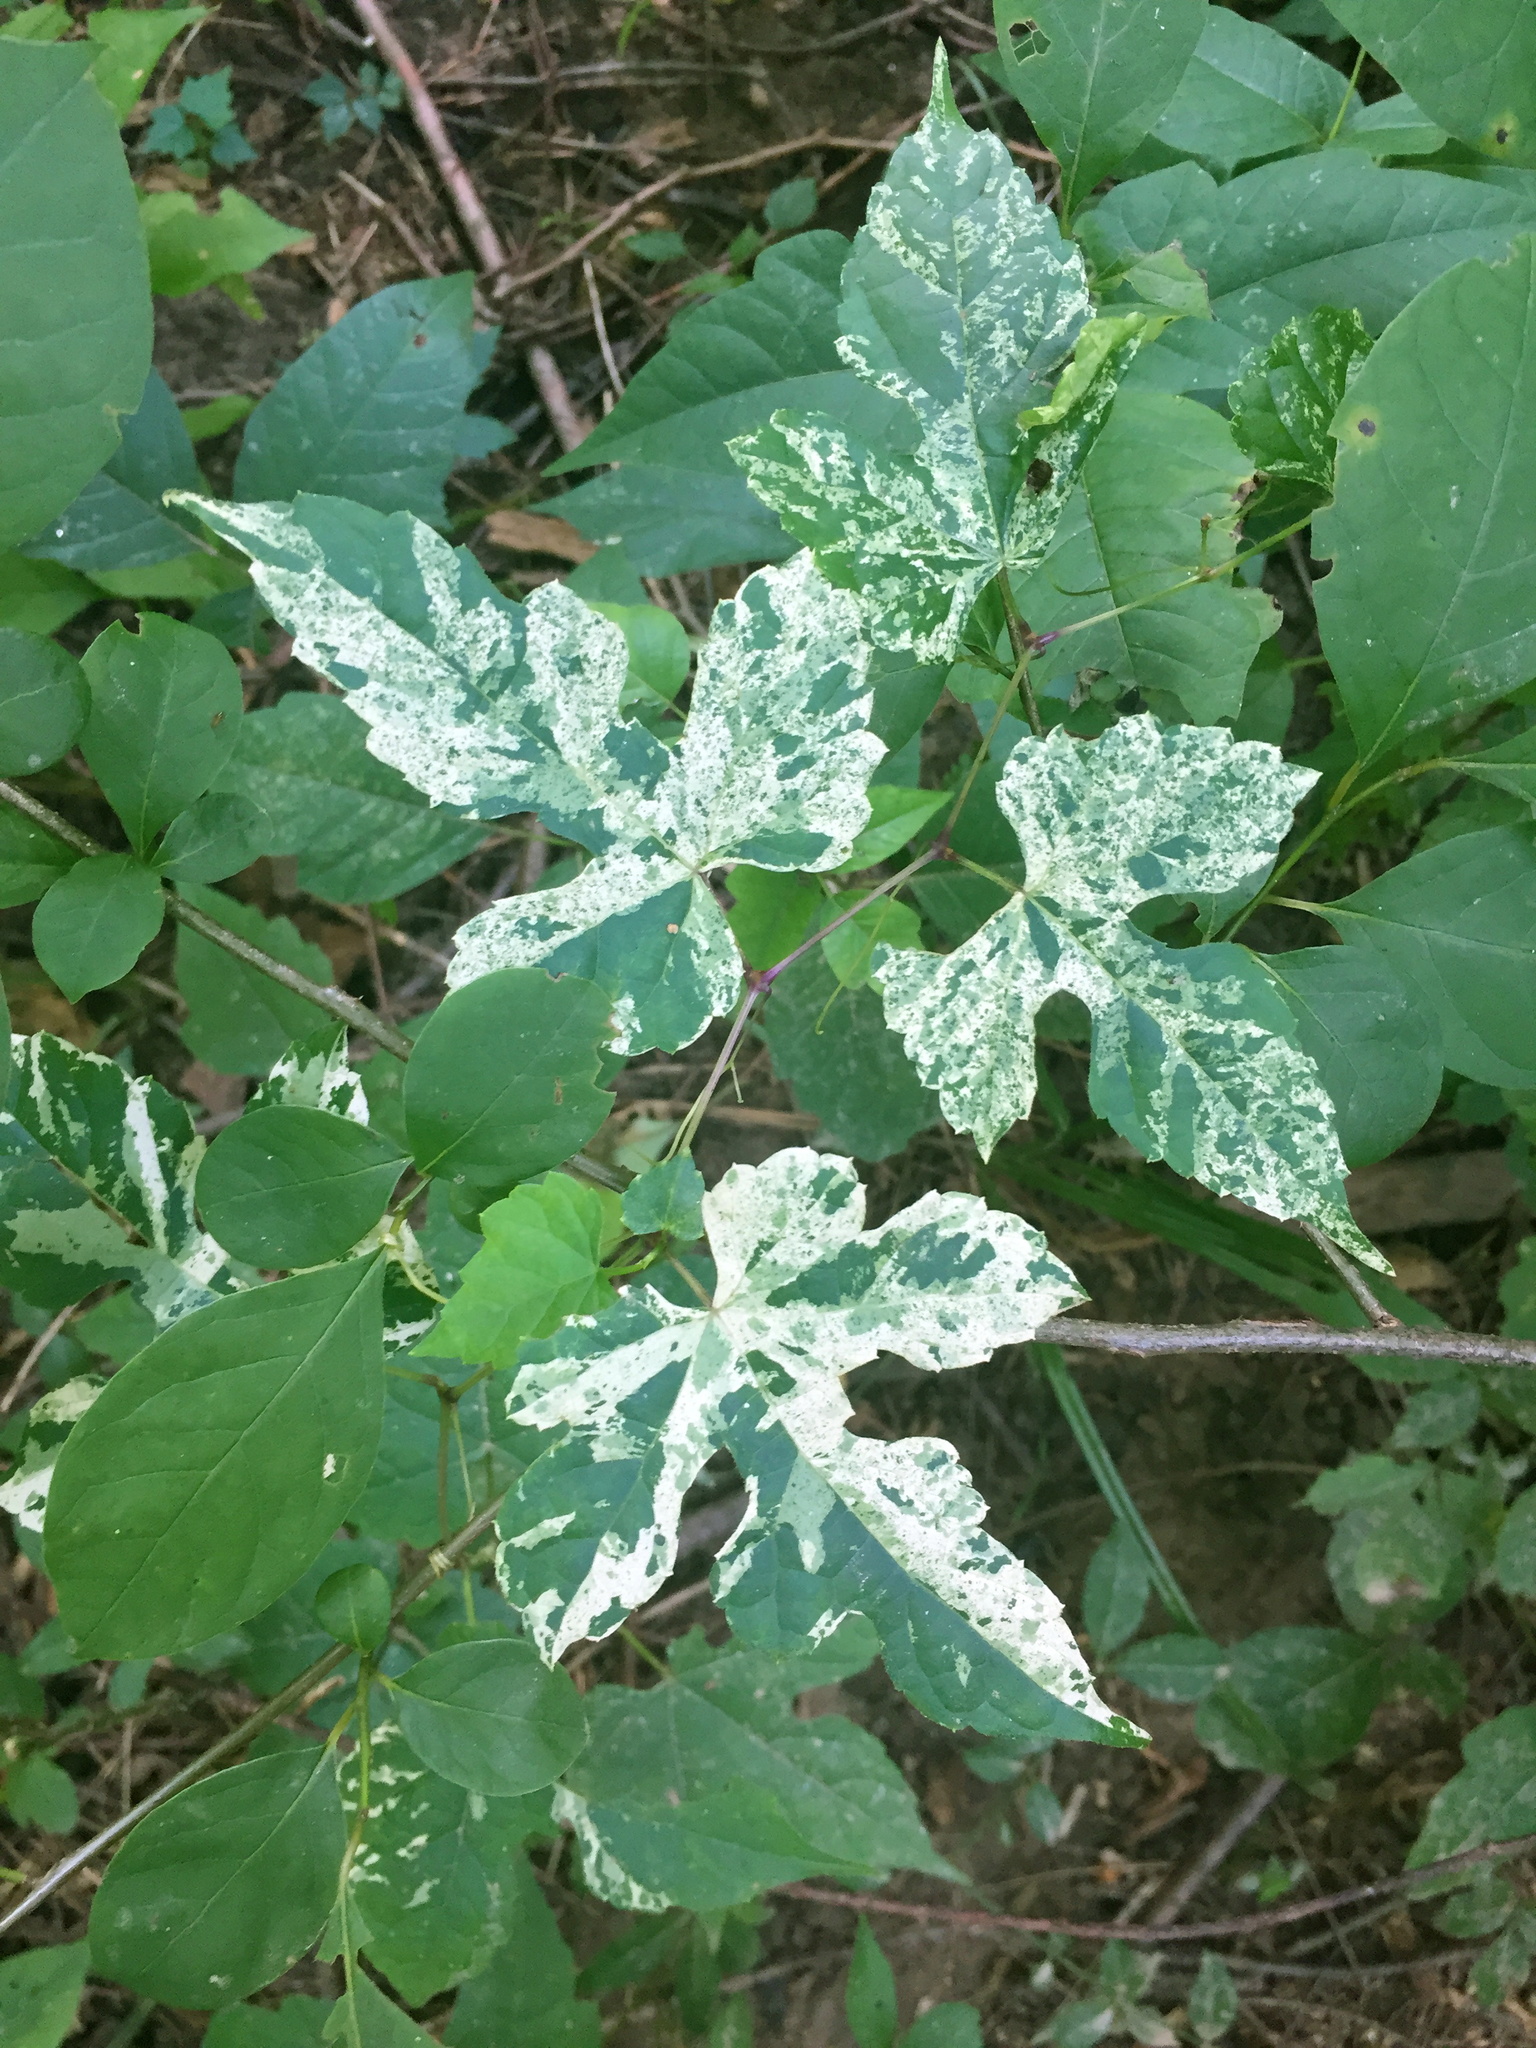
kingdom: Plantae
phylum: Tracheophyta
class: Magnoliopsida
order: Vitales
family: Vitaceae
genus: Ampelopsis
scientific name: Ampelopsis glandulosa
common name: Amur peppervine
